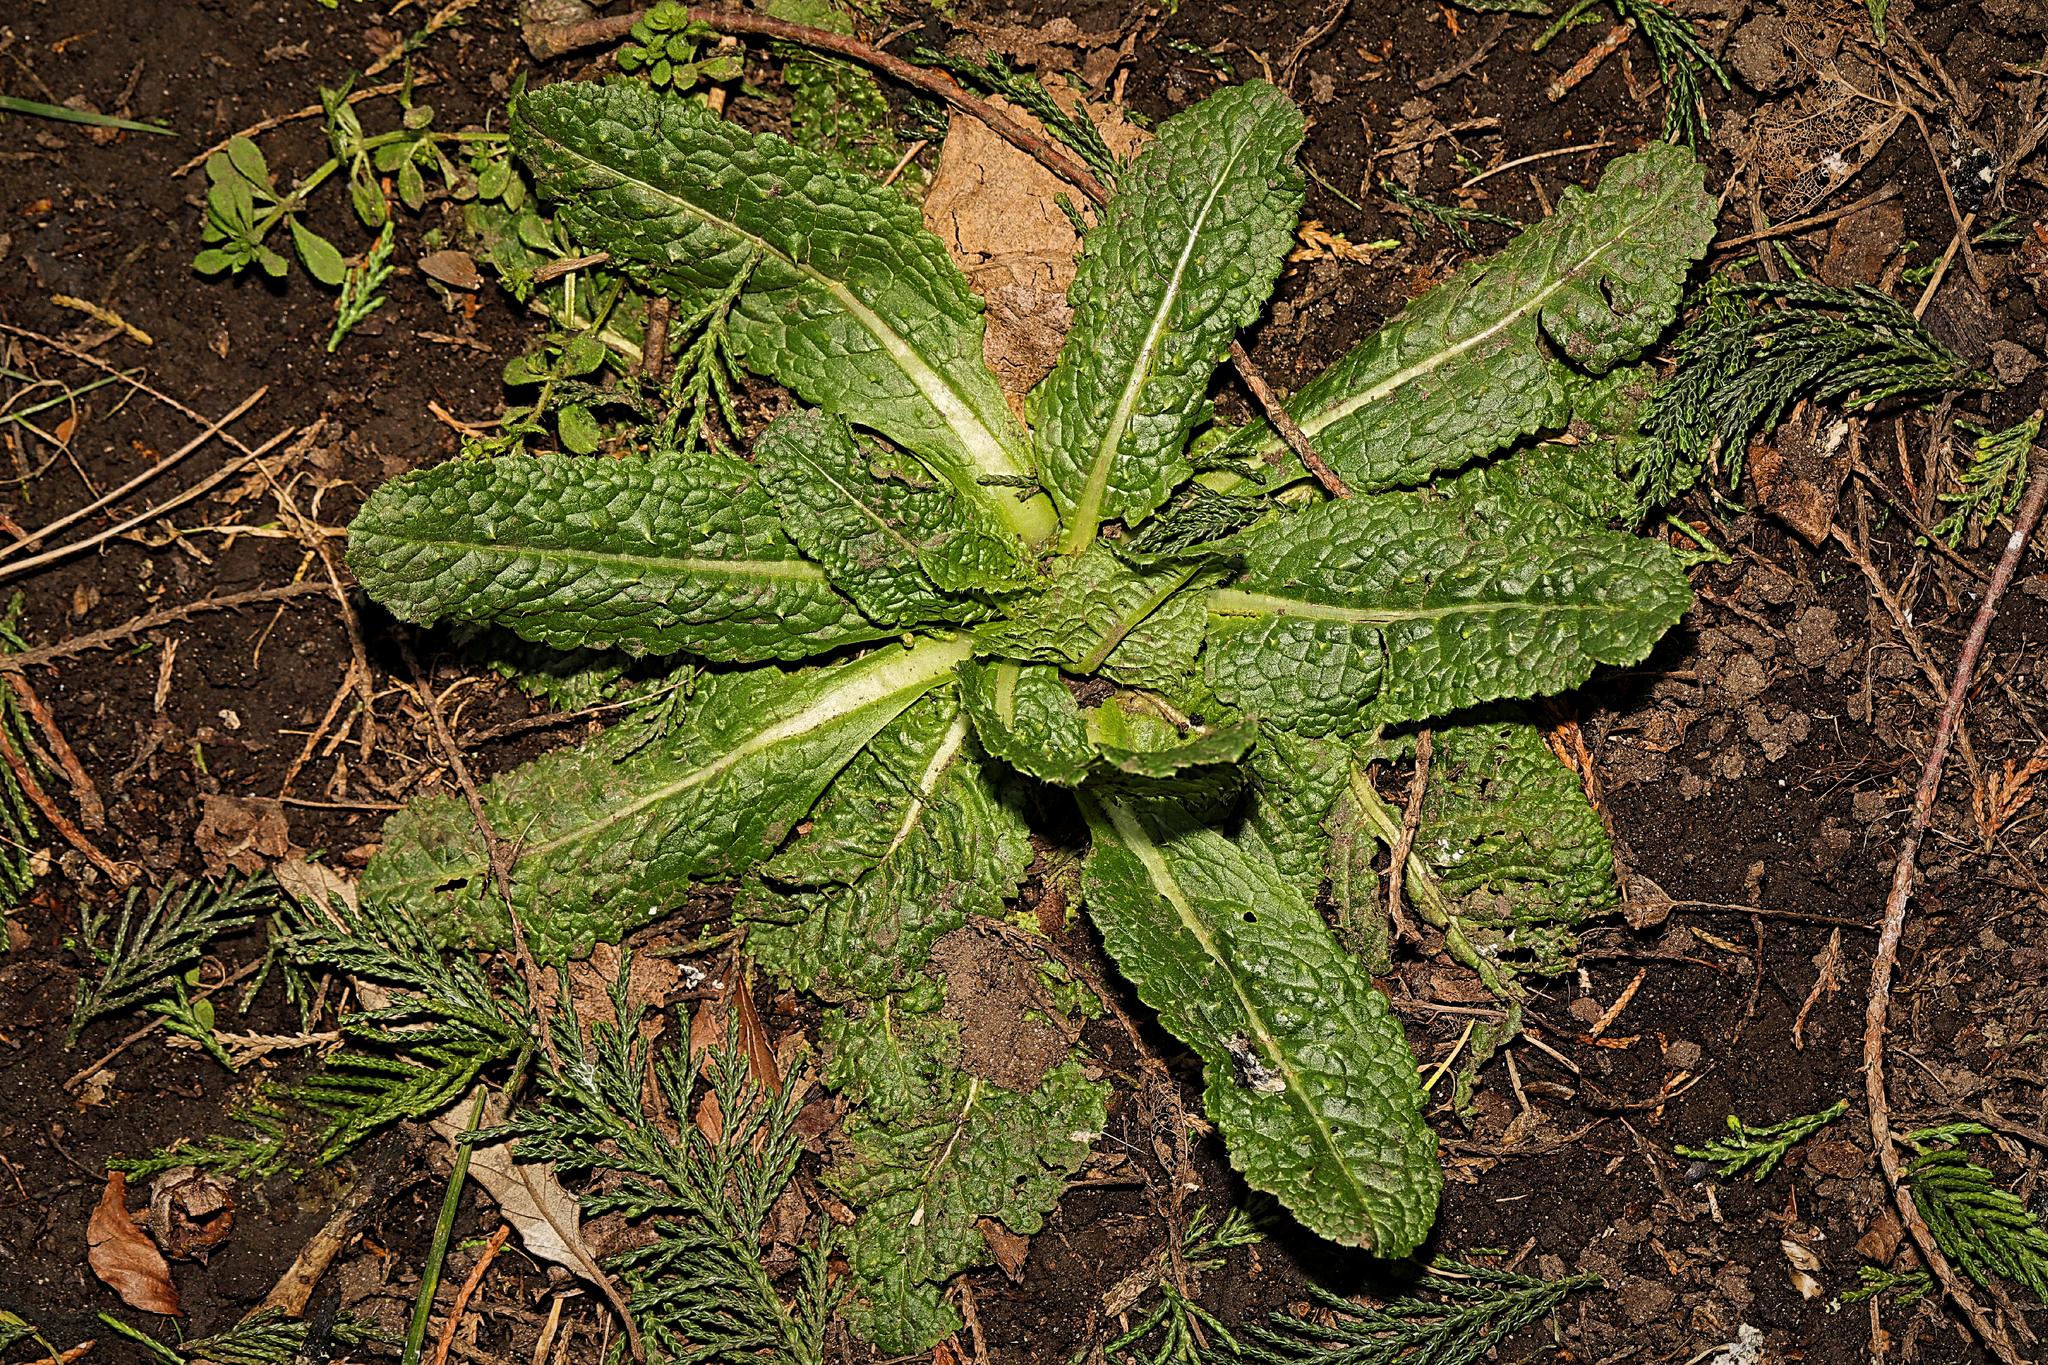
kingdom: Plantae
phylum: Tracheophyta
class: Magnoliopsida
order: Dipsacales
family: Caprifoliaceae
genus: Dipsacus
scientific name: Dipsacus fullonum
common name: Teasel
